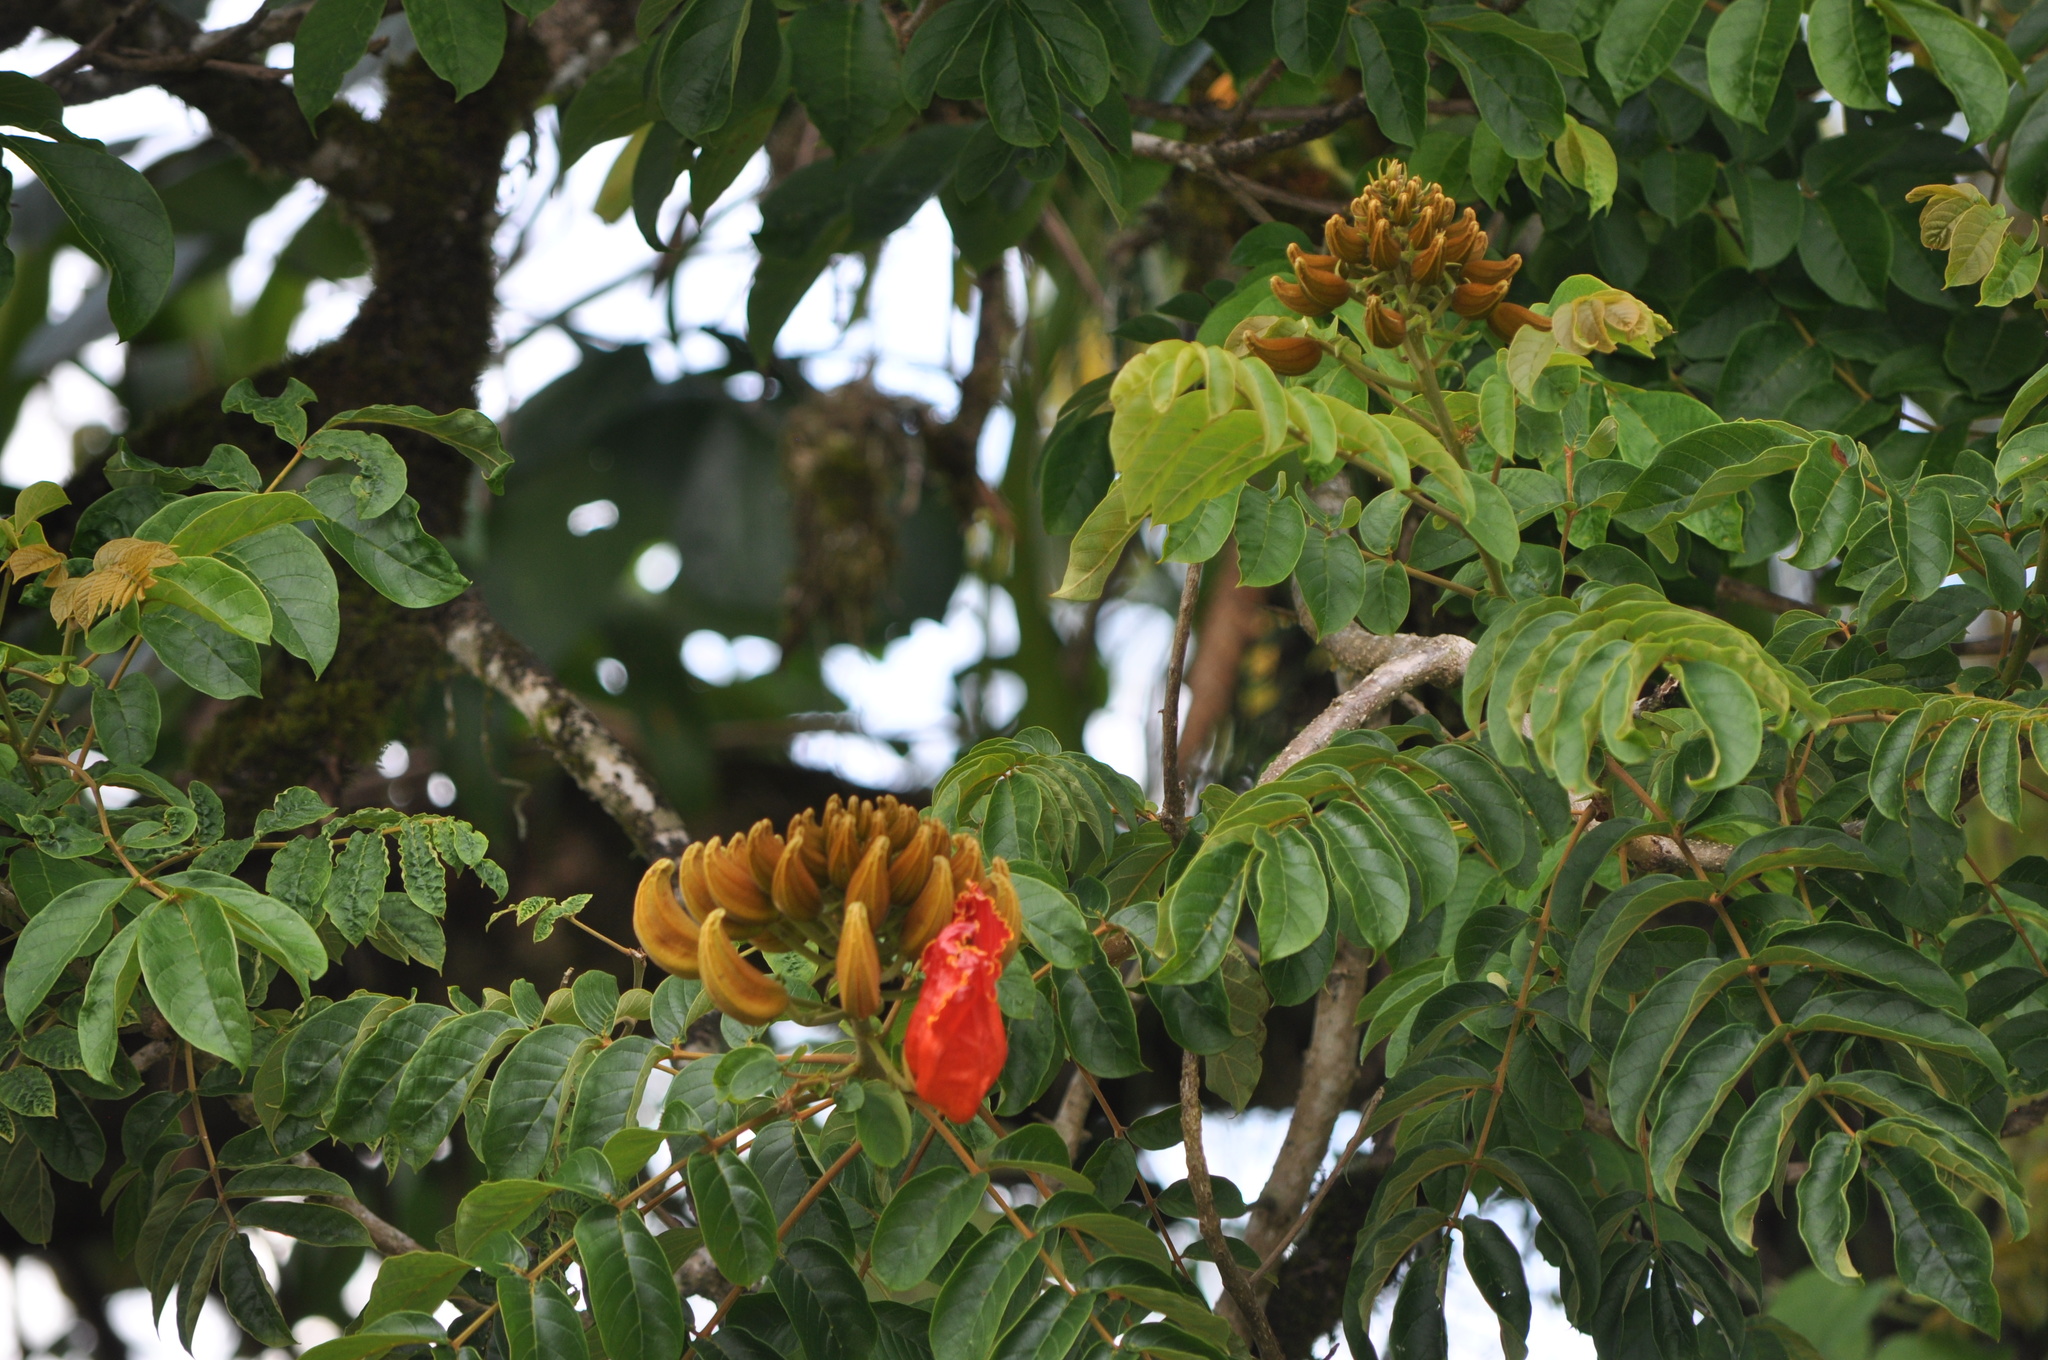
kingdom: Plantae
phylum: Tracheophyta
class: Magnoliopsida
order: Lamiales
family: Bignoniaceae
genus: Spathodea
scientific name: Spathodea campanulata
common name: African tuliptree
